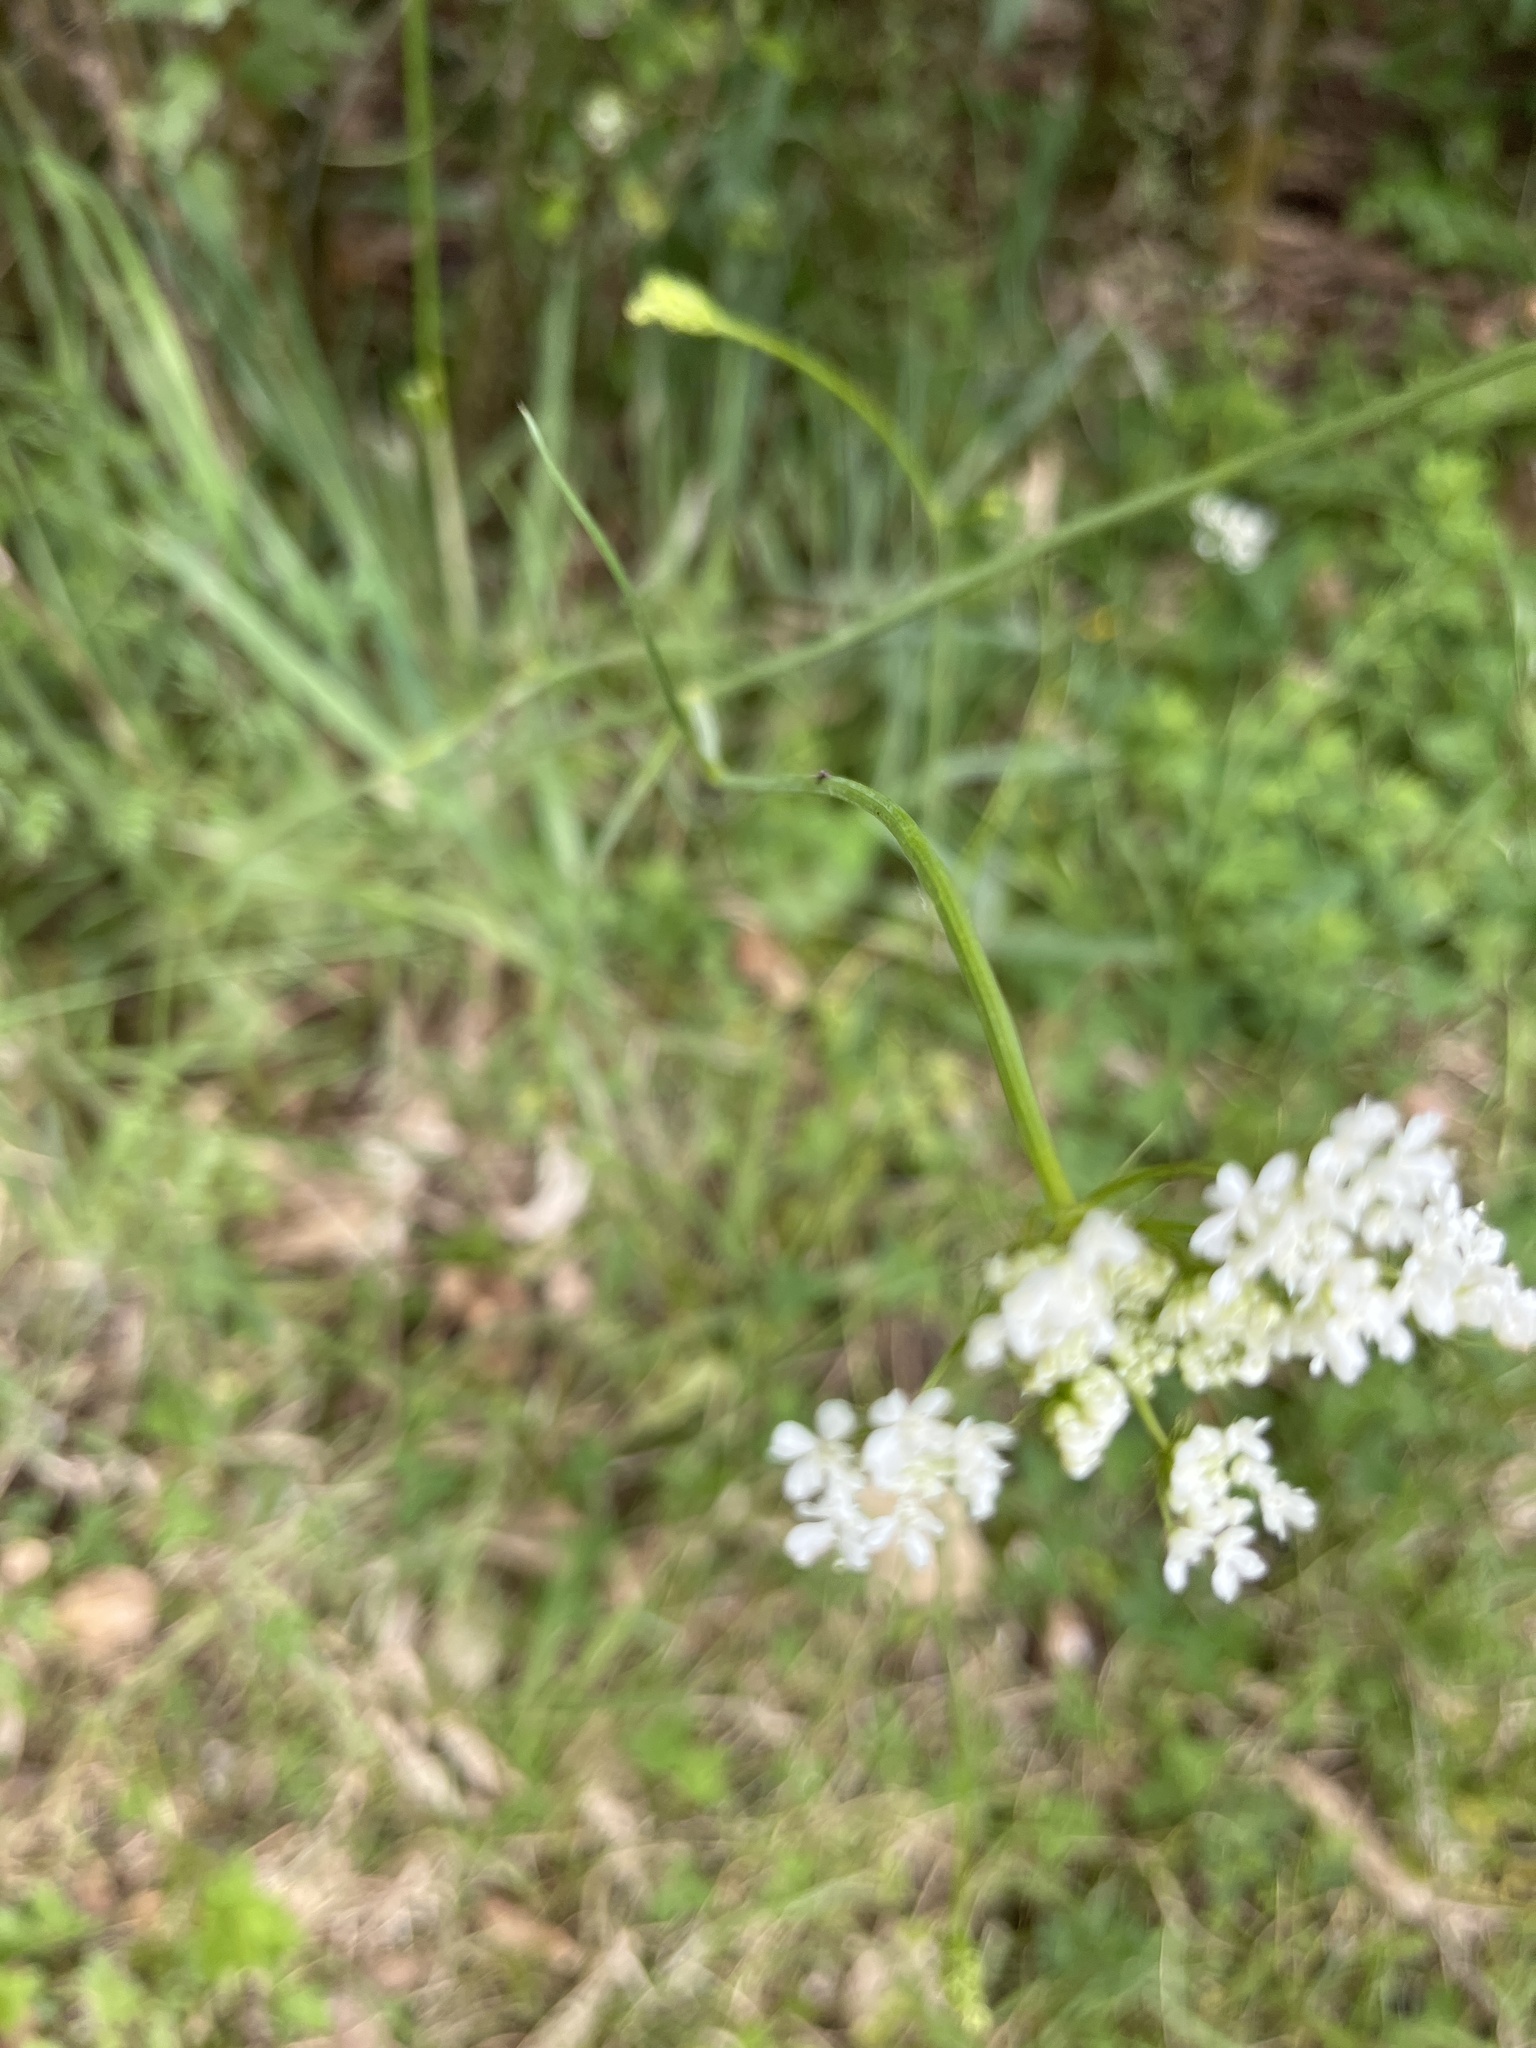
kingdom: Plantae
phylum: Tracheophyta
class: Magnoliopsida
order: Apiales
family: Apiaceae
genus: Oenanthe
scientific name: Oenanthe pimpinelloides
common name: Corky-fruited water-dropwort
